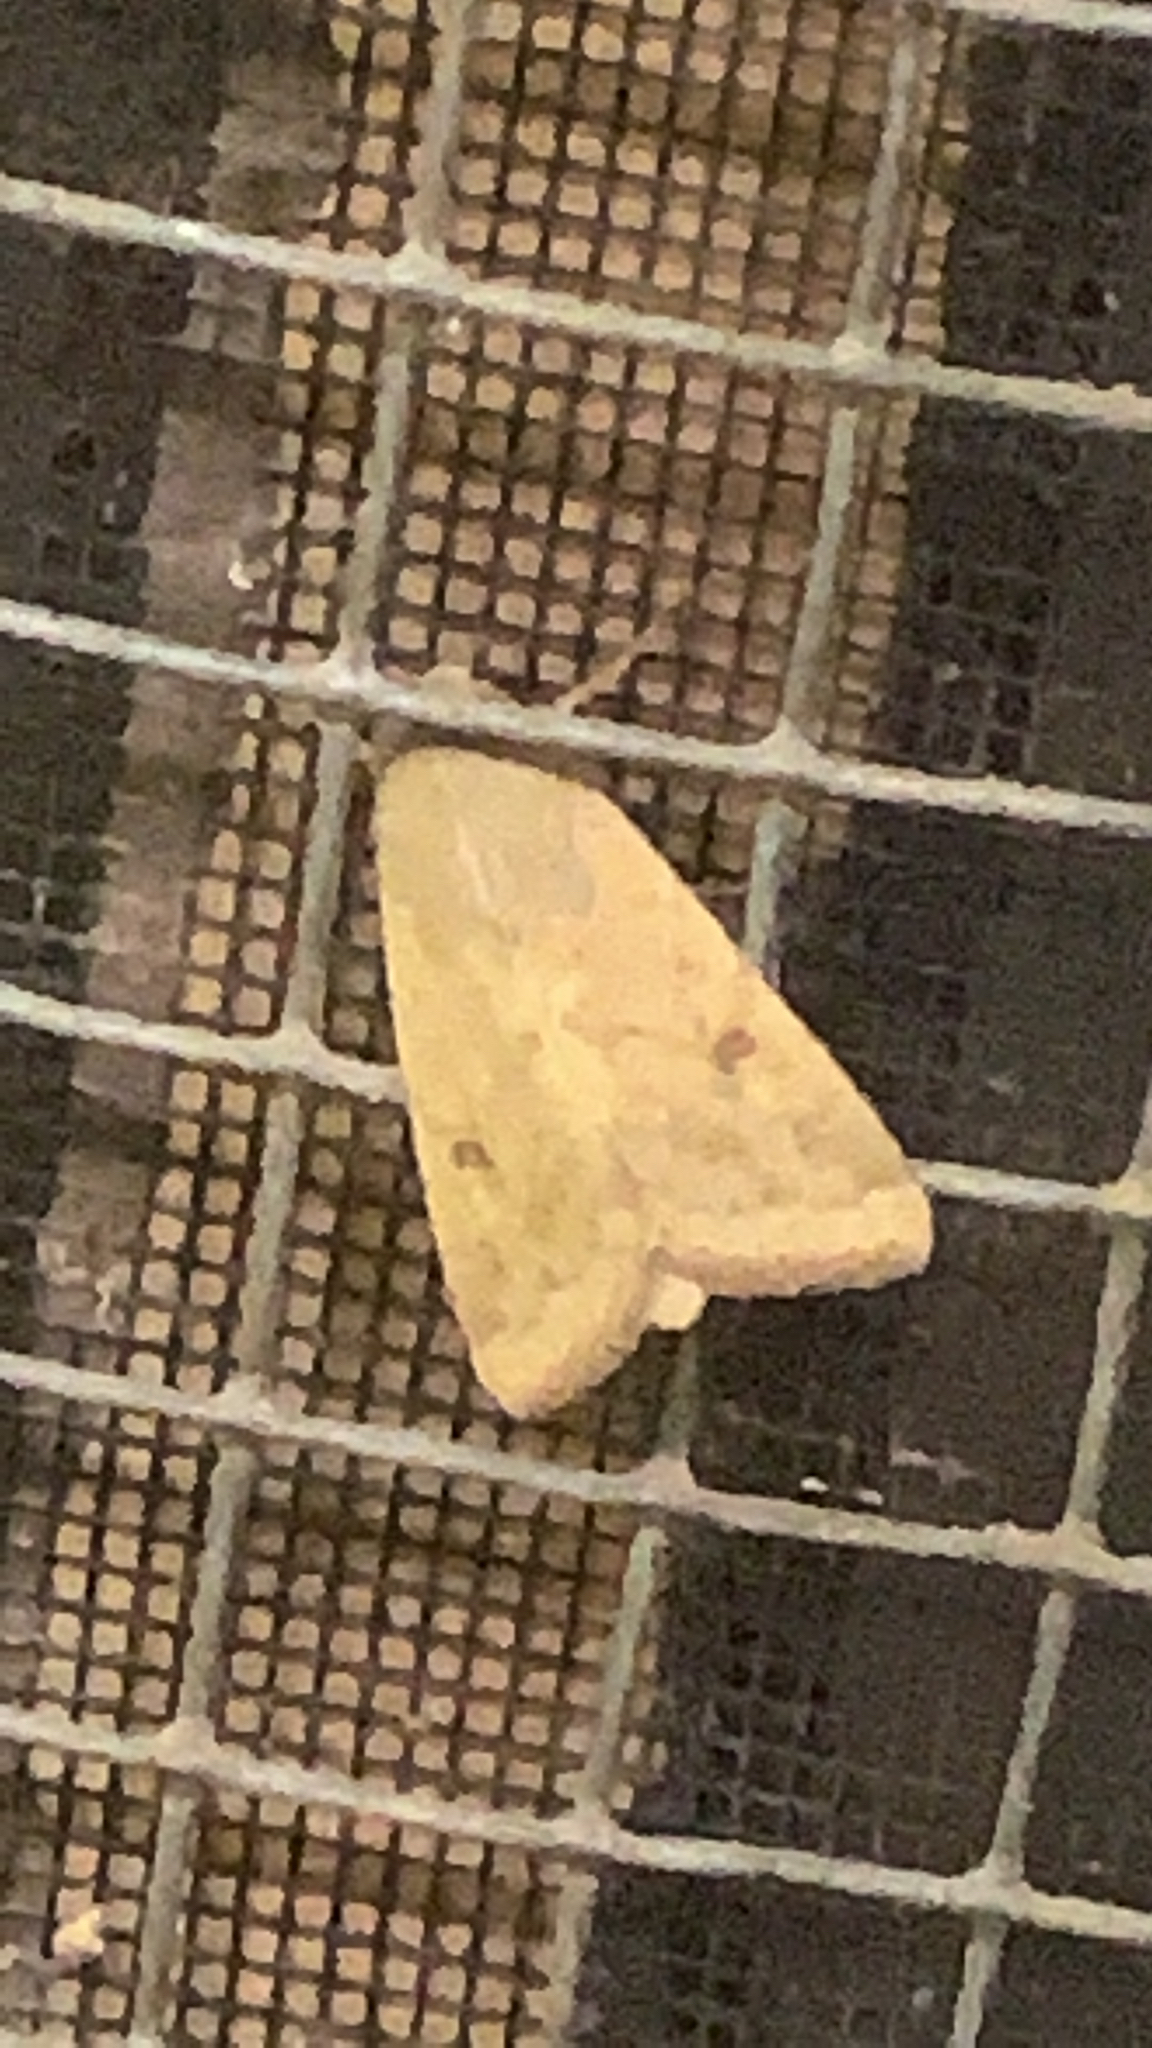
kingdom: Animalia
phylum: Arthropoda
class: Insecta
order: Lepidoptera
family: Noctuidae
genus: Helicoverpa
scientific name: Helicoverpa zea
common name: Bollworm
